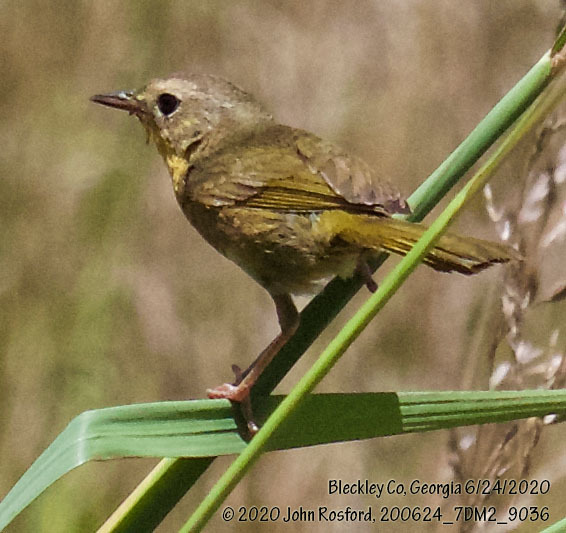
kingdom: Animalia
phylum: Chordata
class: Aves
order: Passeriformes
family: Parulidae
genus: Geothlypis
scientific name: Geothlypis trichas
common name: Common yellowthroat
